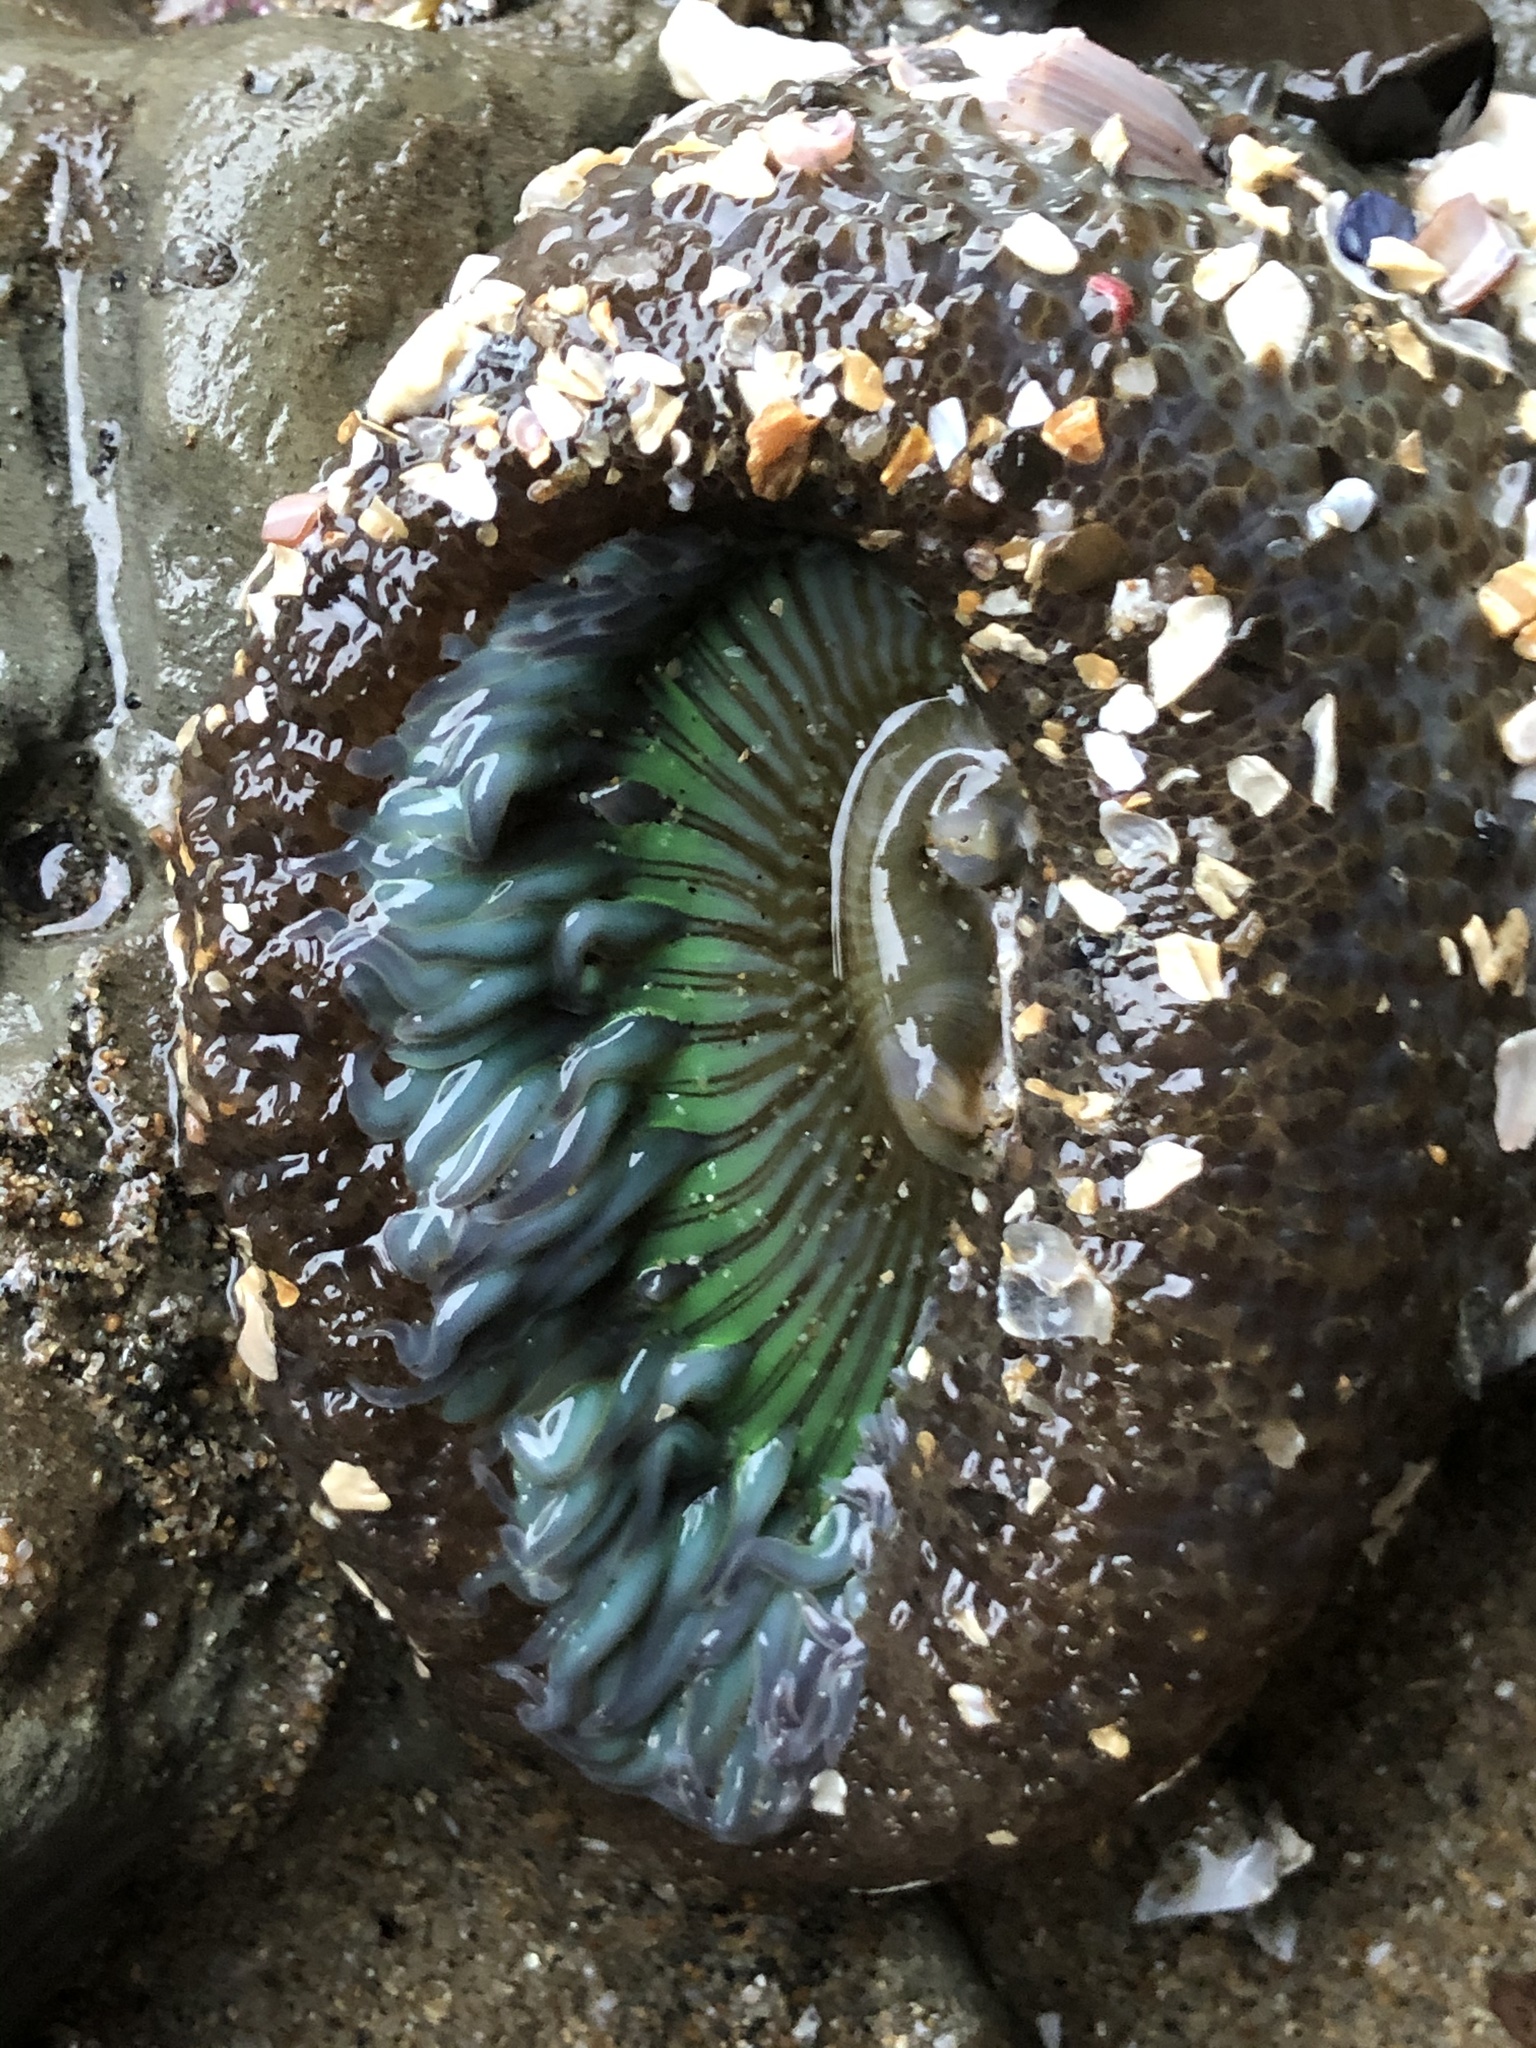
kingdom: Animalia
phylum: Cnidaria
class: Anthozoa
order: Actiniaria
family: Actiniidae
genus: Anthopleura
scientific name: Anthopleura sola
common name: Sun anemone
